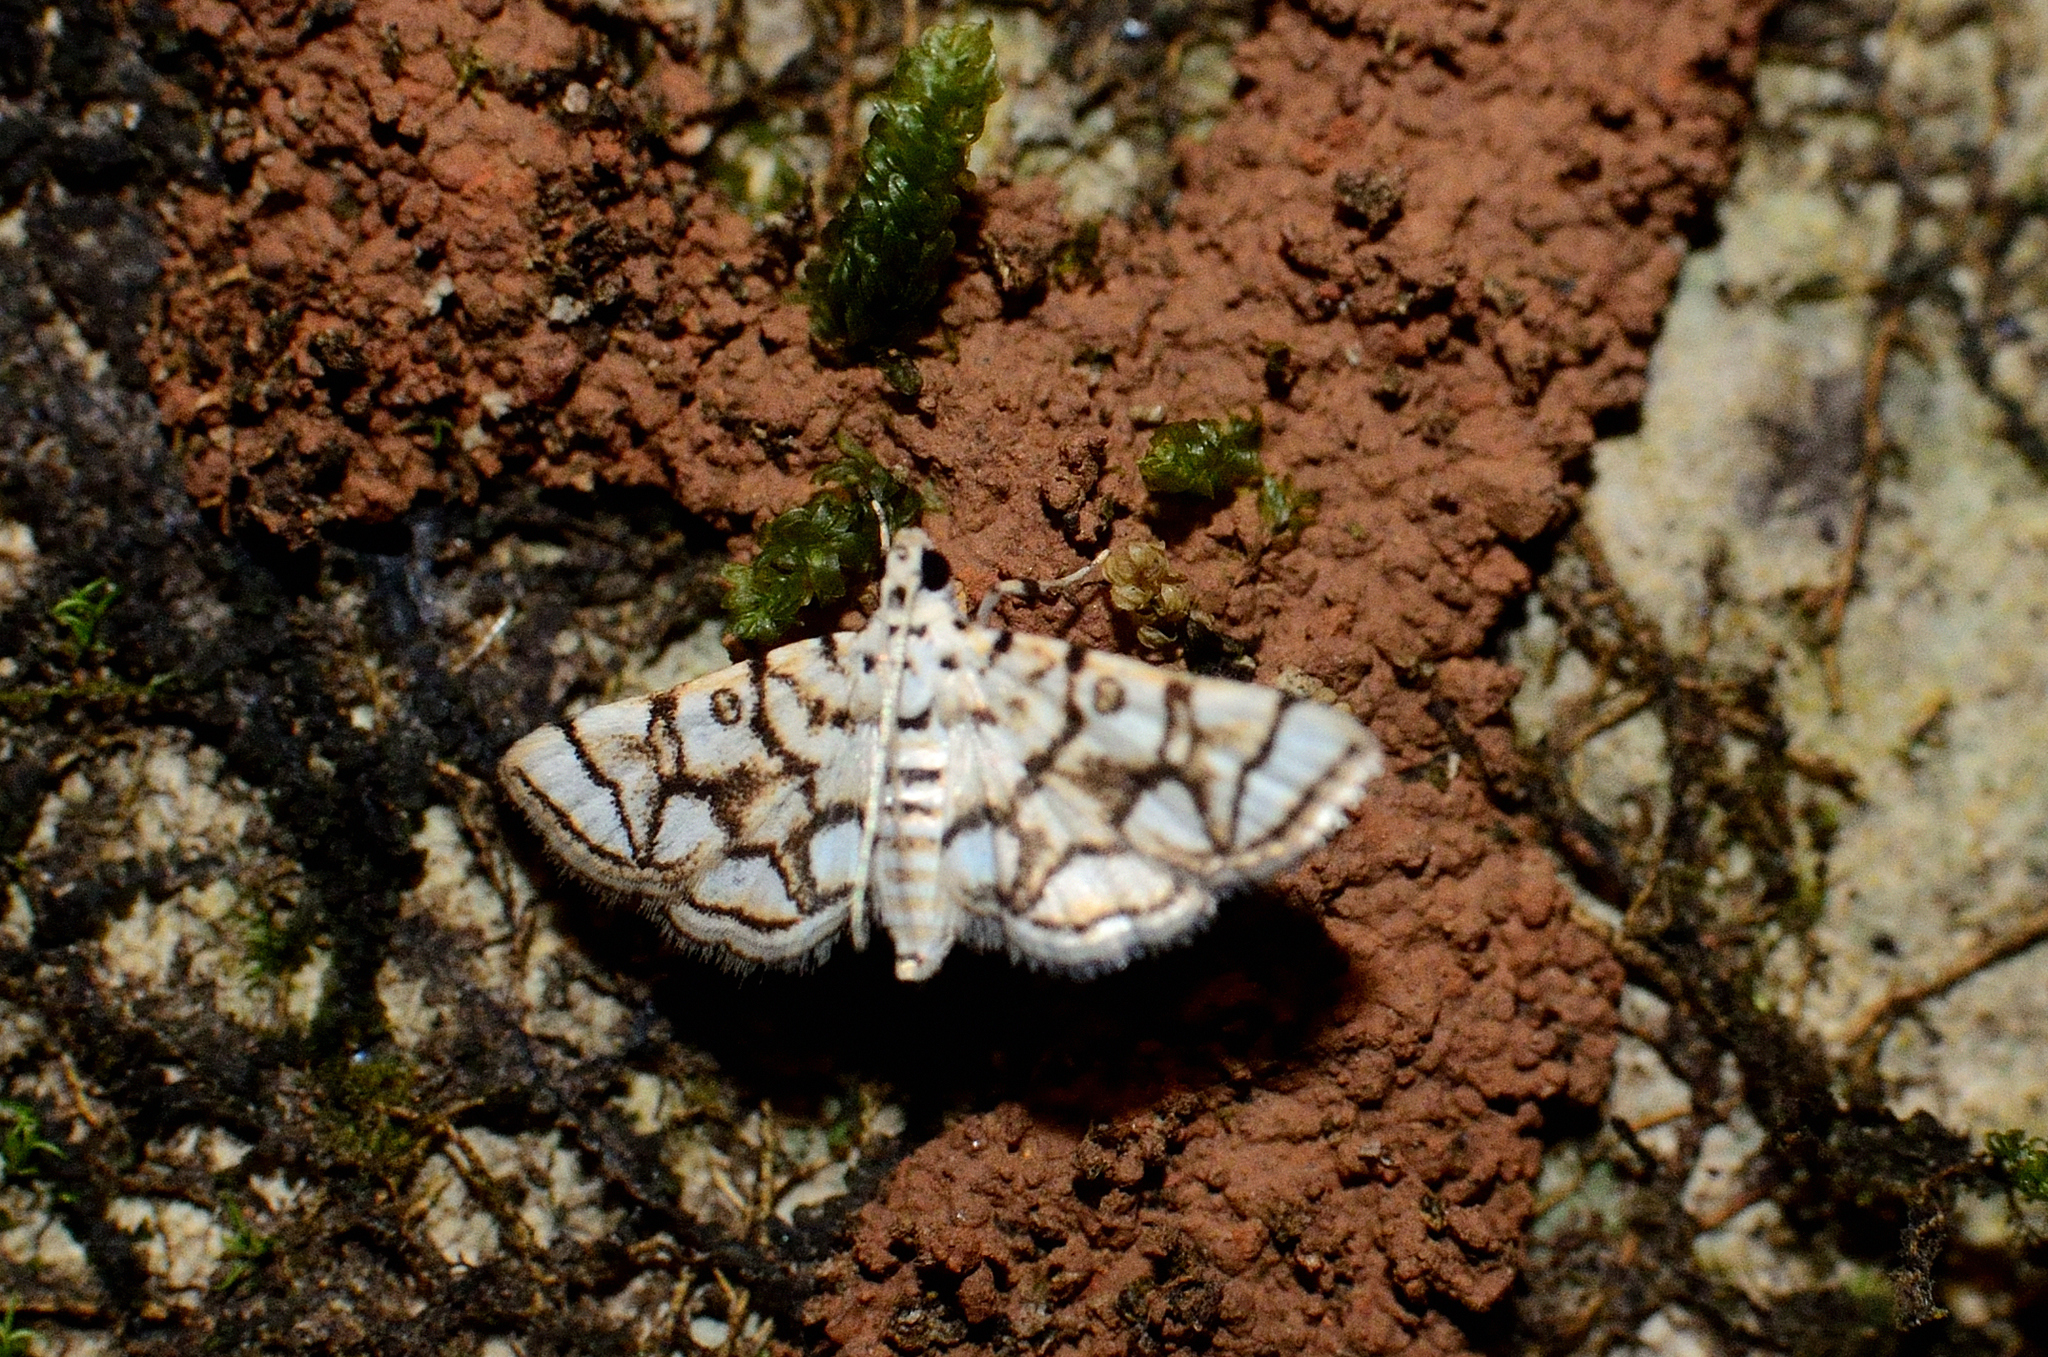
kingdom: Animalia
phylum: Arthropoda
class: Insecta
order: Lepidoptera
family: Crambidae
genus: Elophila
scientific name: Elophila
